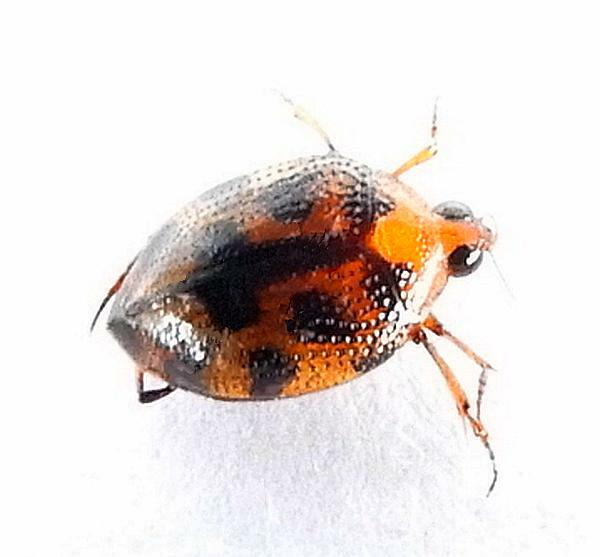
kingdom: Animalia
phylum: Arthropoda
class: Insecta
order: Coleoptera
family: Haliplidae
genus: Peltodytes
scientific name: Peltodytes
